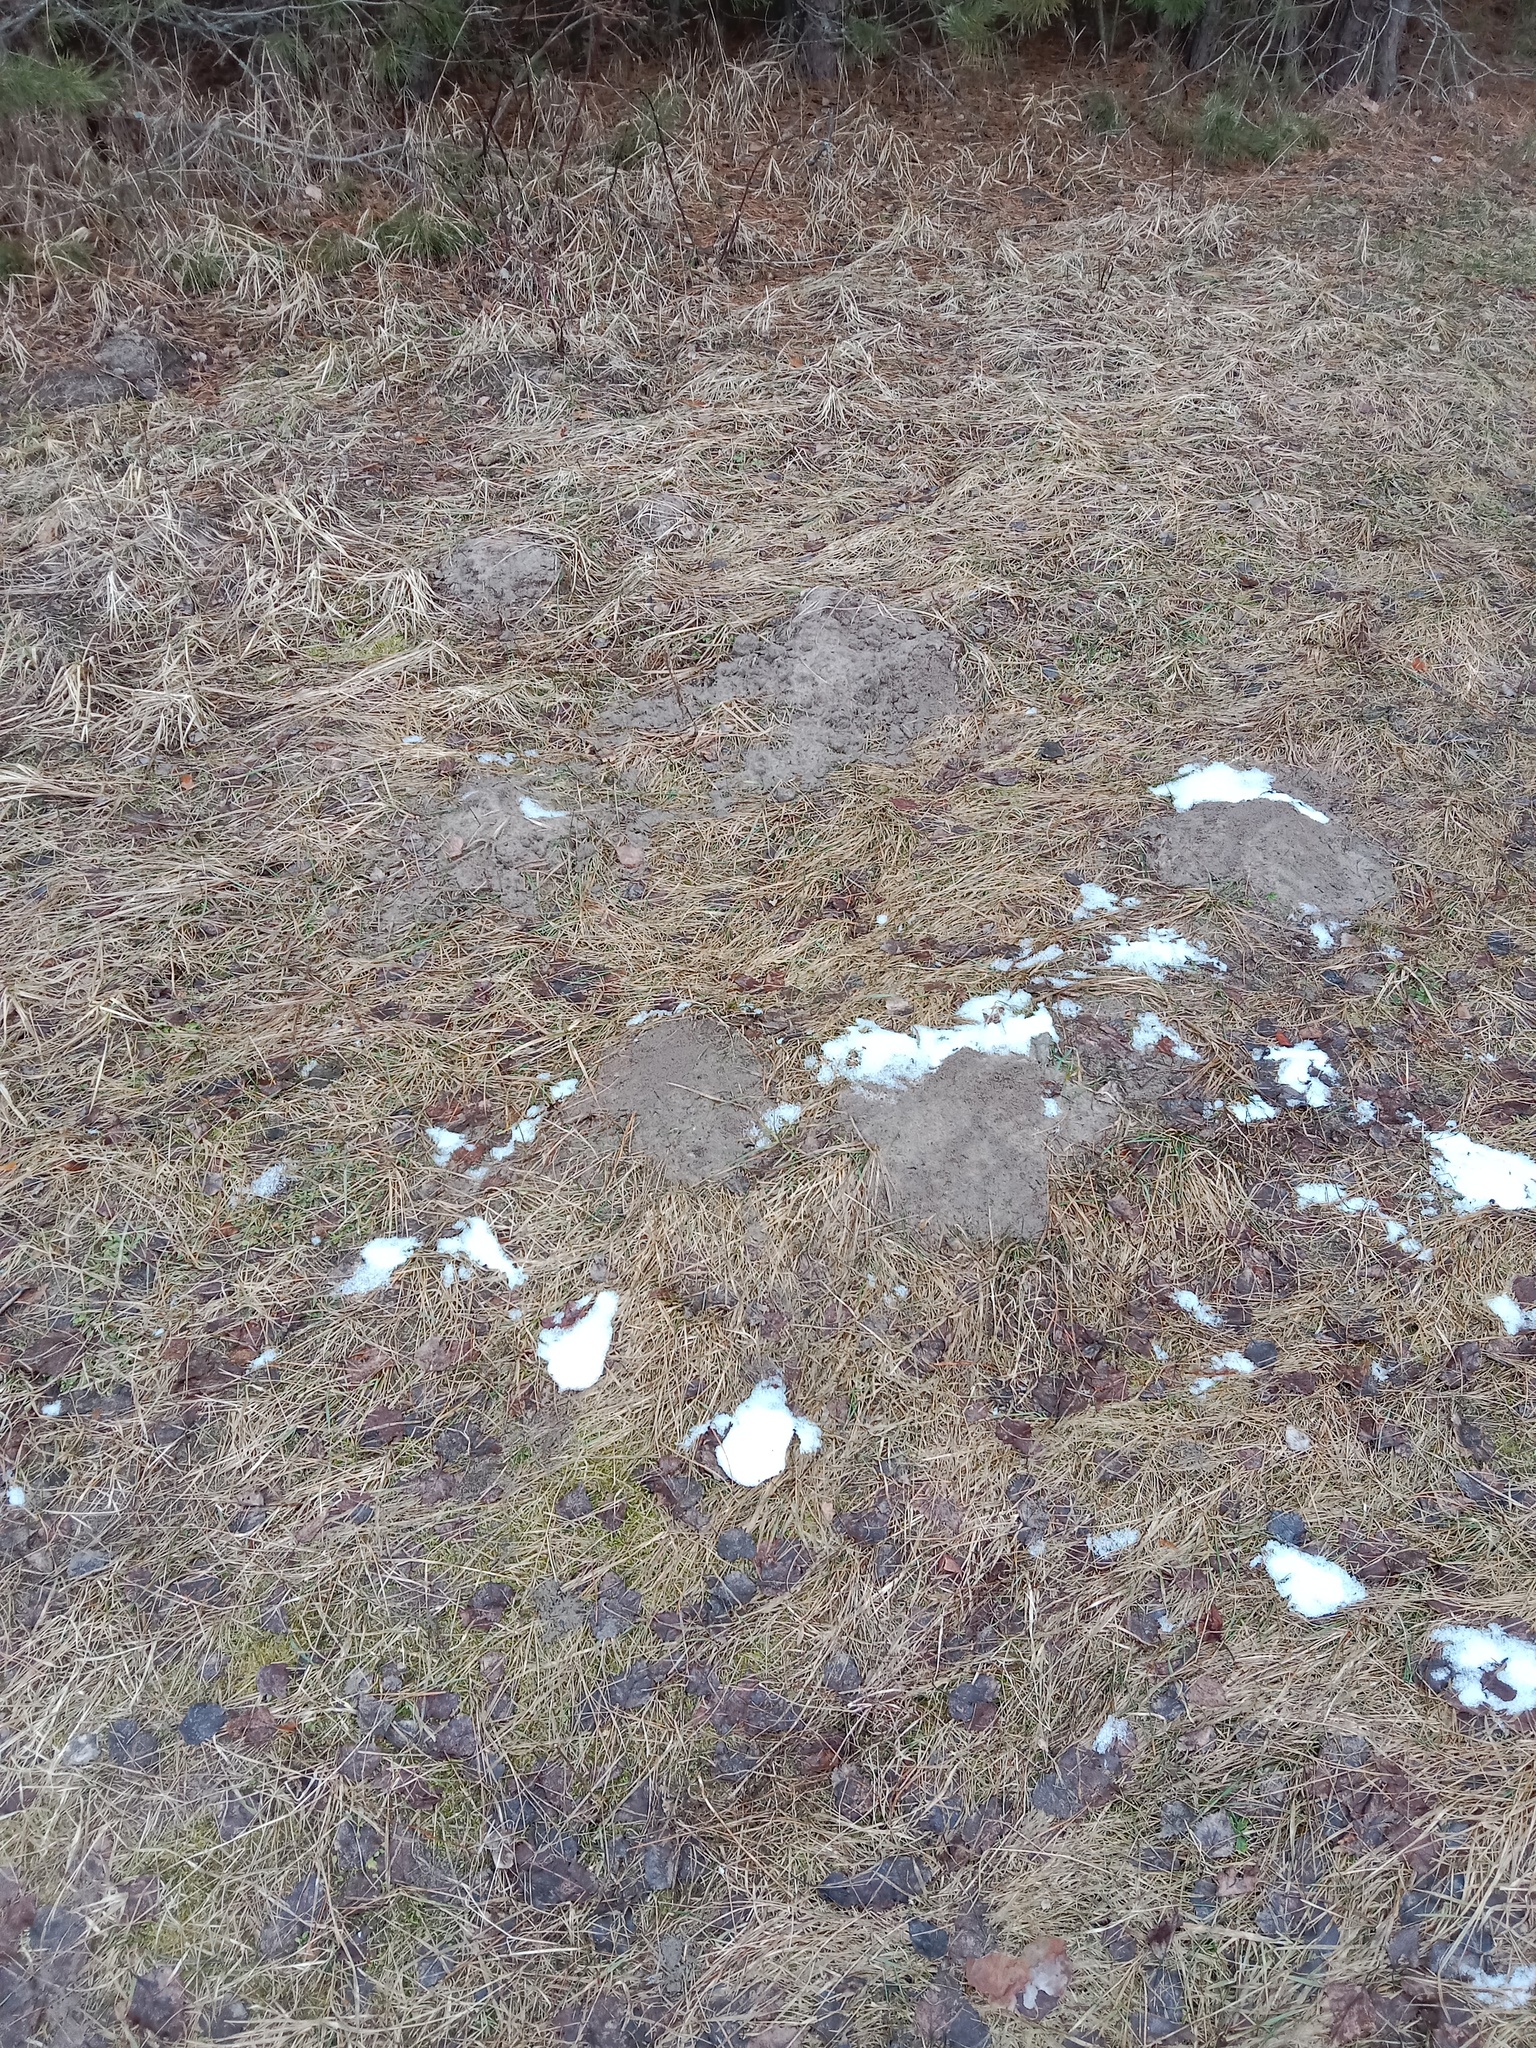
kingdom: Animalia
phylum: Chordata
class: Mammalia
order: Soricomorpha
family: Talpidae
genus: Talpa
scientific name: Talpa europaea
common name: European mole
